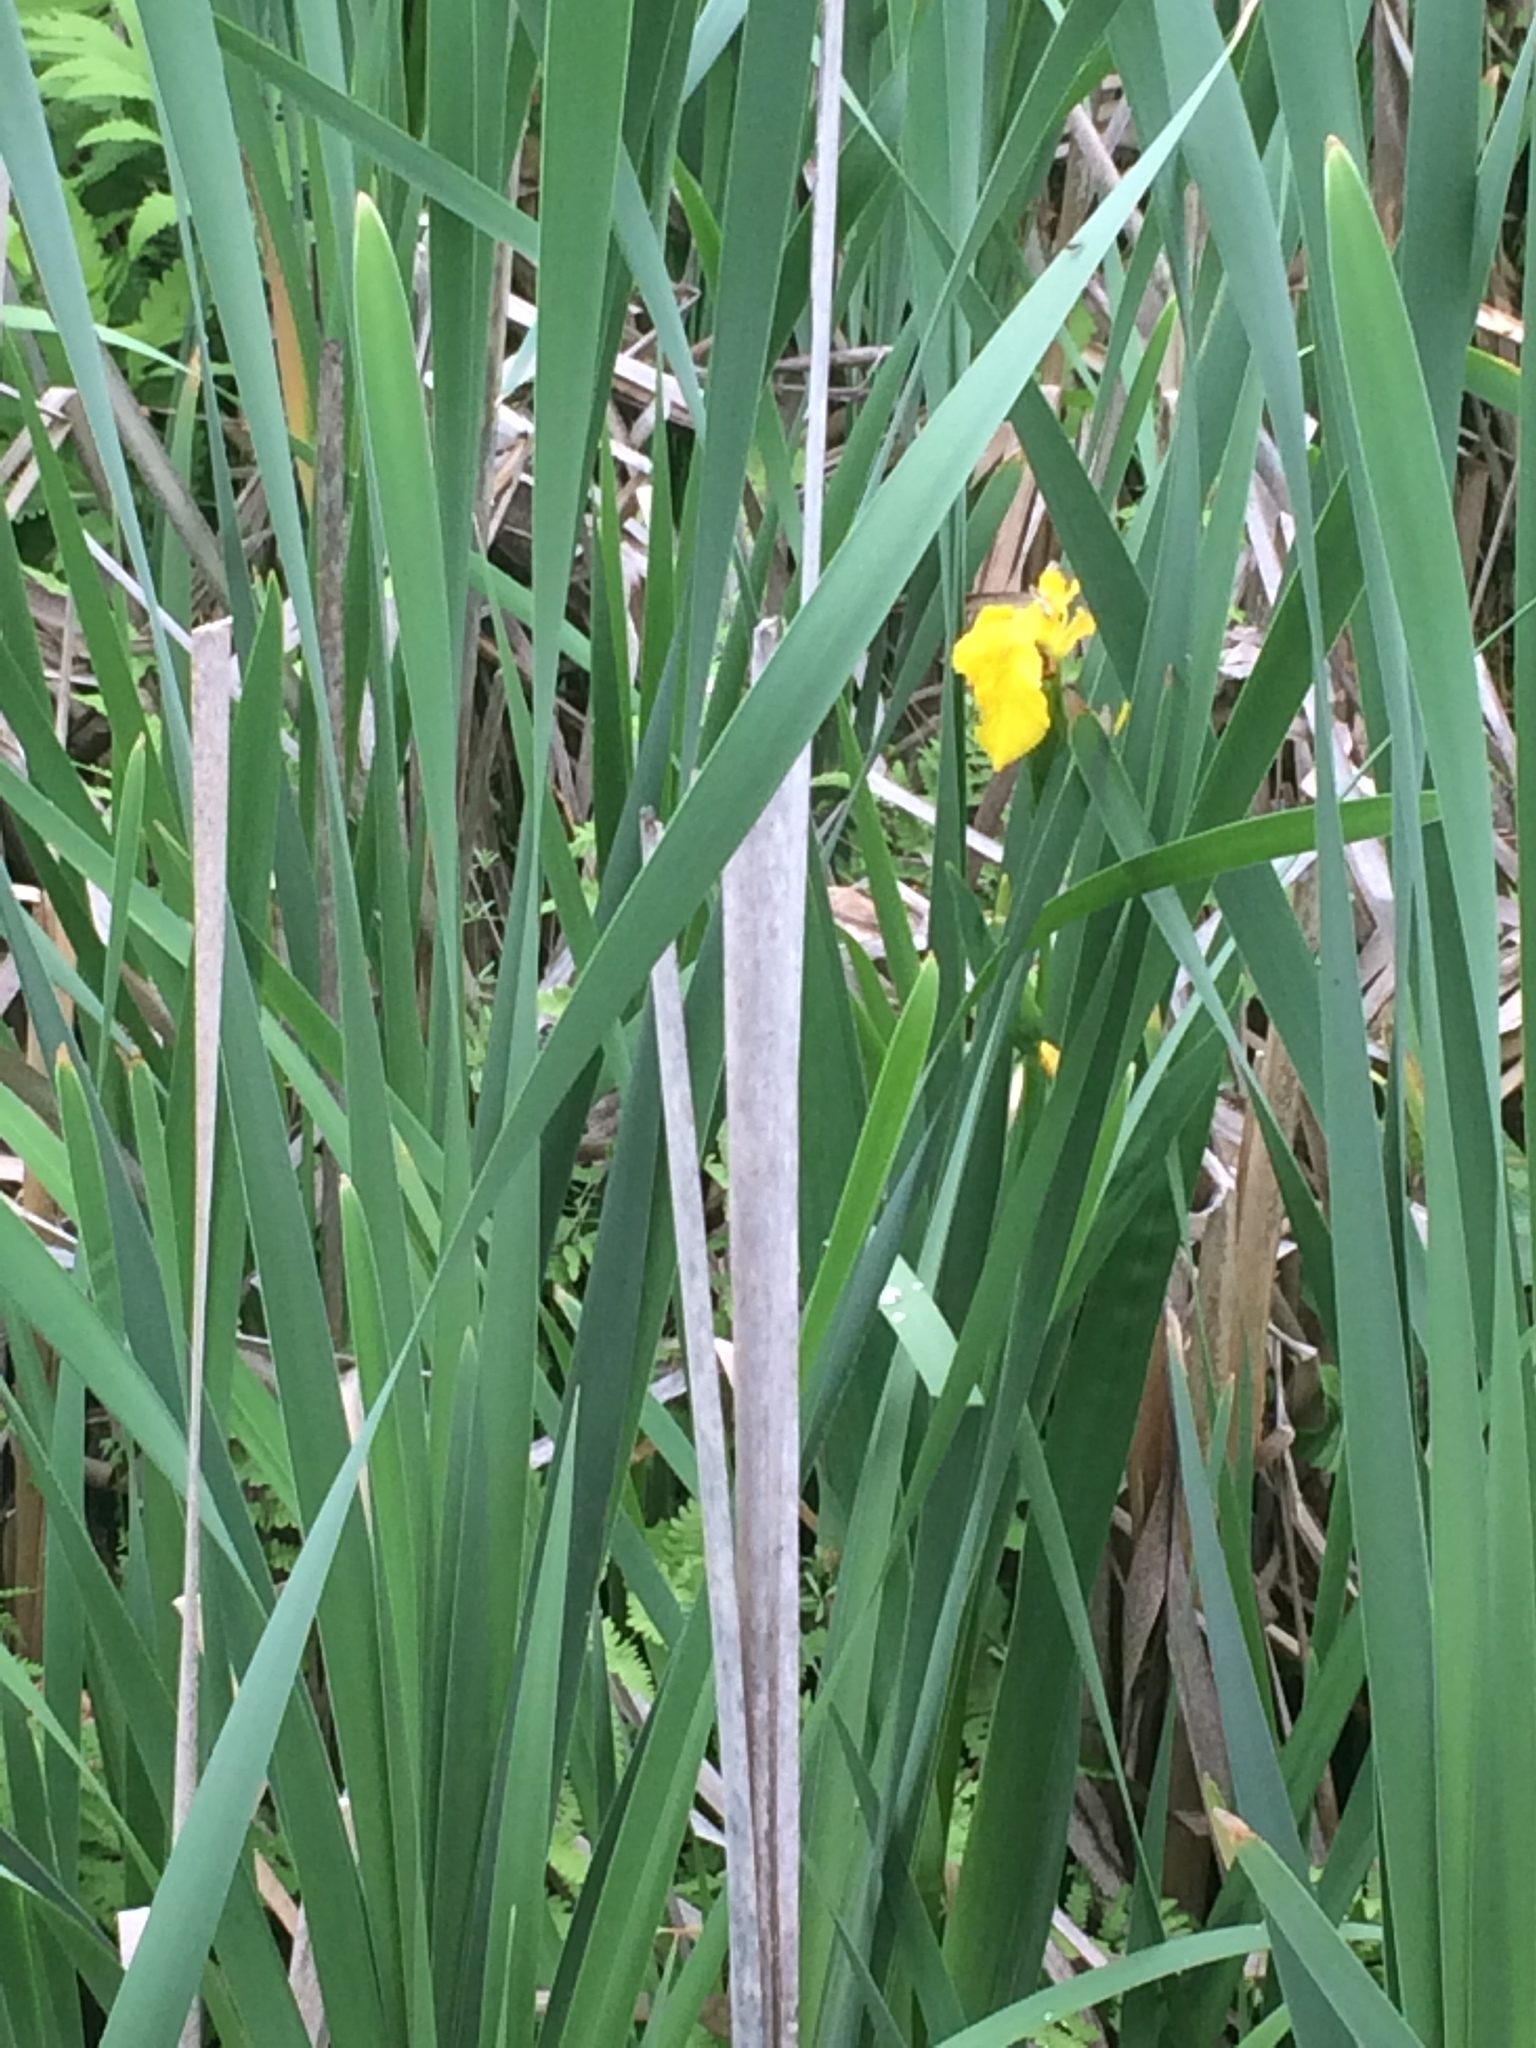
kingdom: Plantae
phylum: Tracheophyta
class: Liliopsida
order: Asparagales
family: Iridaceae
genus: Iris
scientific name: Iris pseudacorus
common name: Yellow flag
